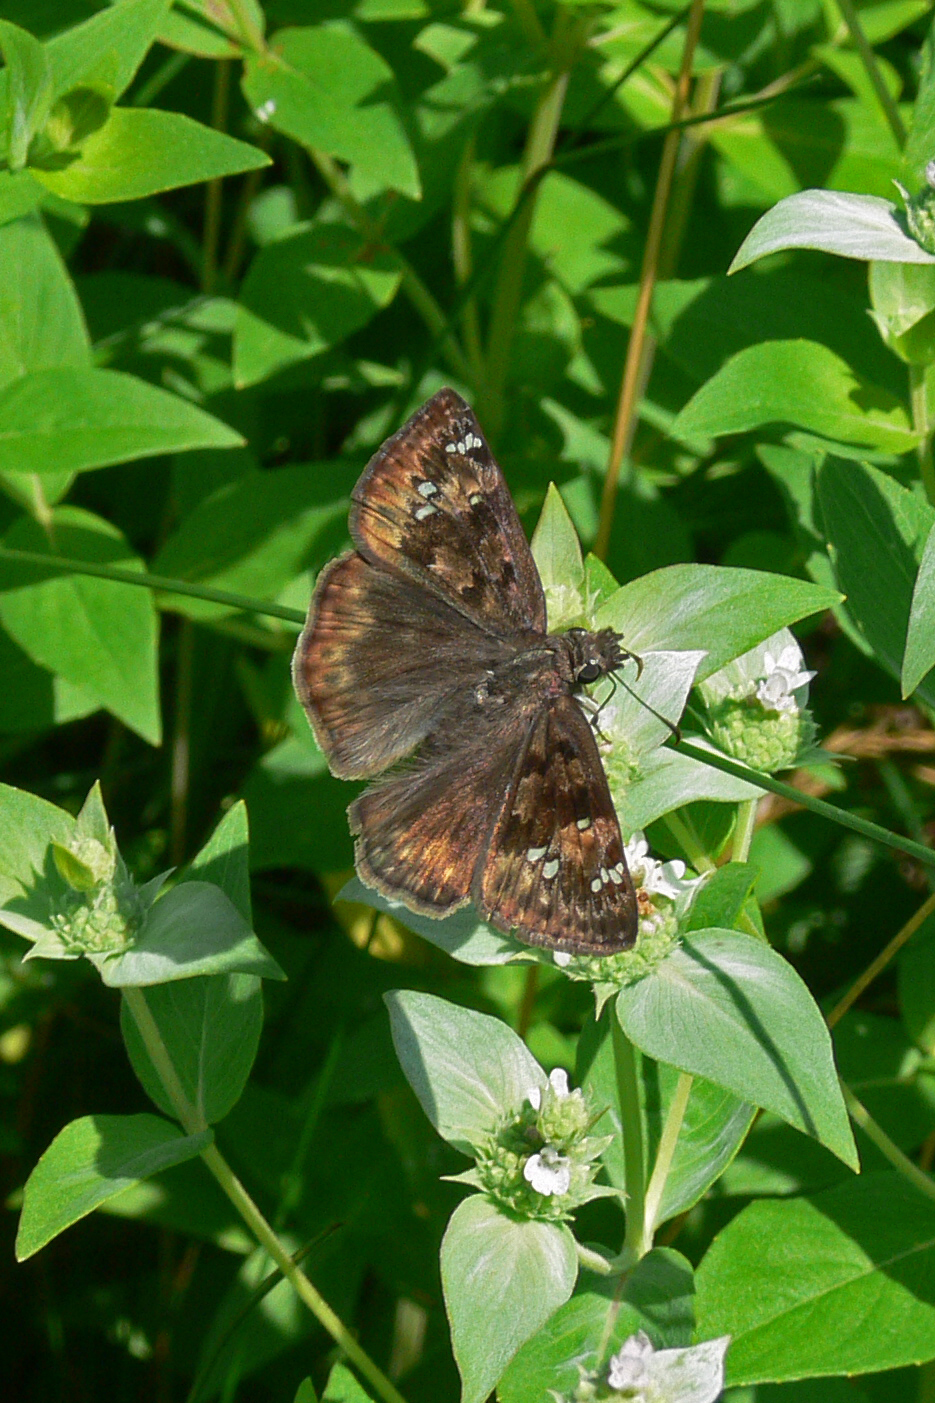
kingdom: Animalia
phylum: Arthropoda
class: Insecta
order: Lepidoptera
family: Hesperiidae
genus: Erynnis
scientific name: Erynnis horatius
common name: Horace's duskywing
